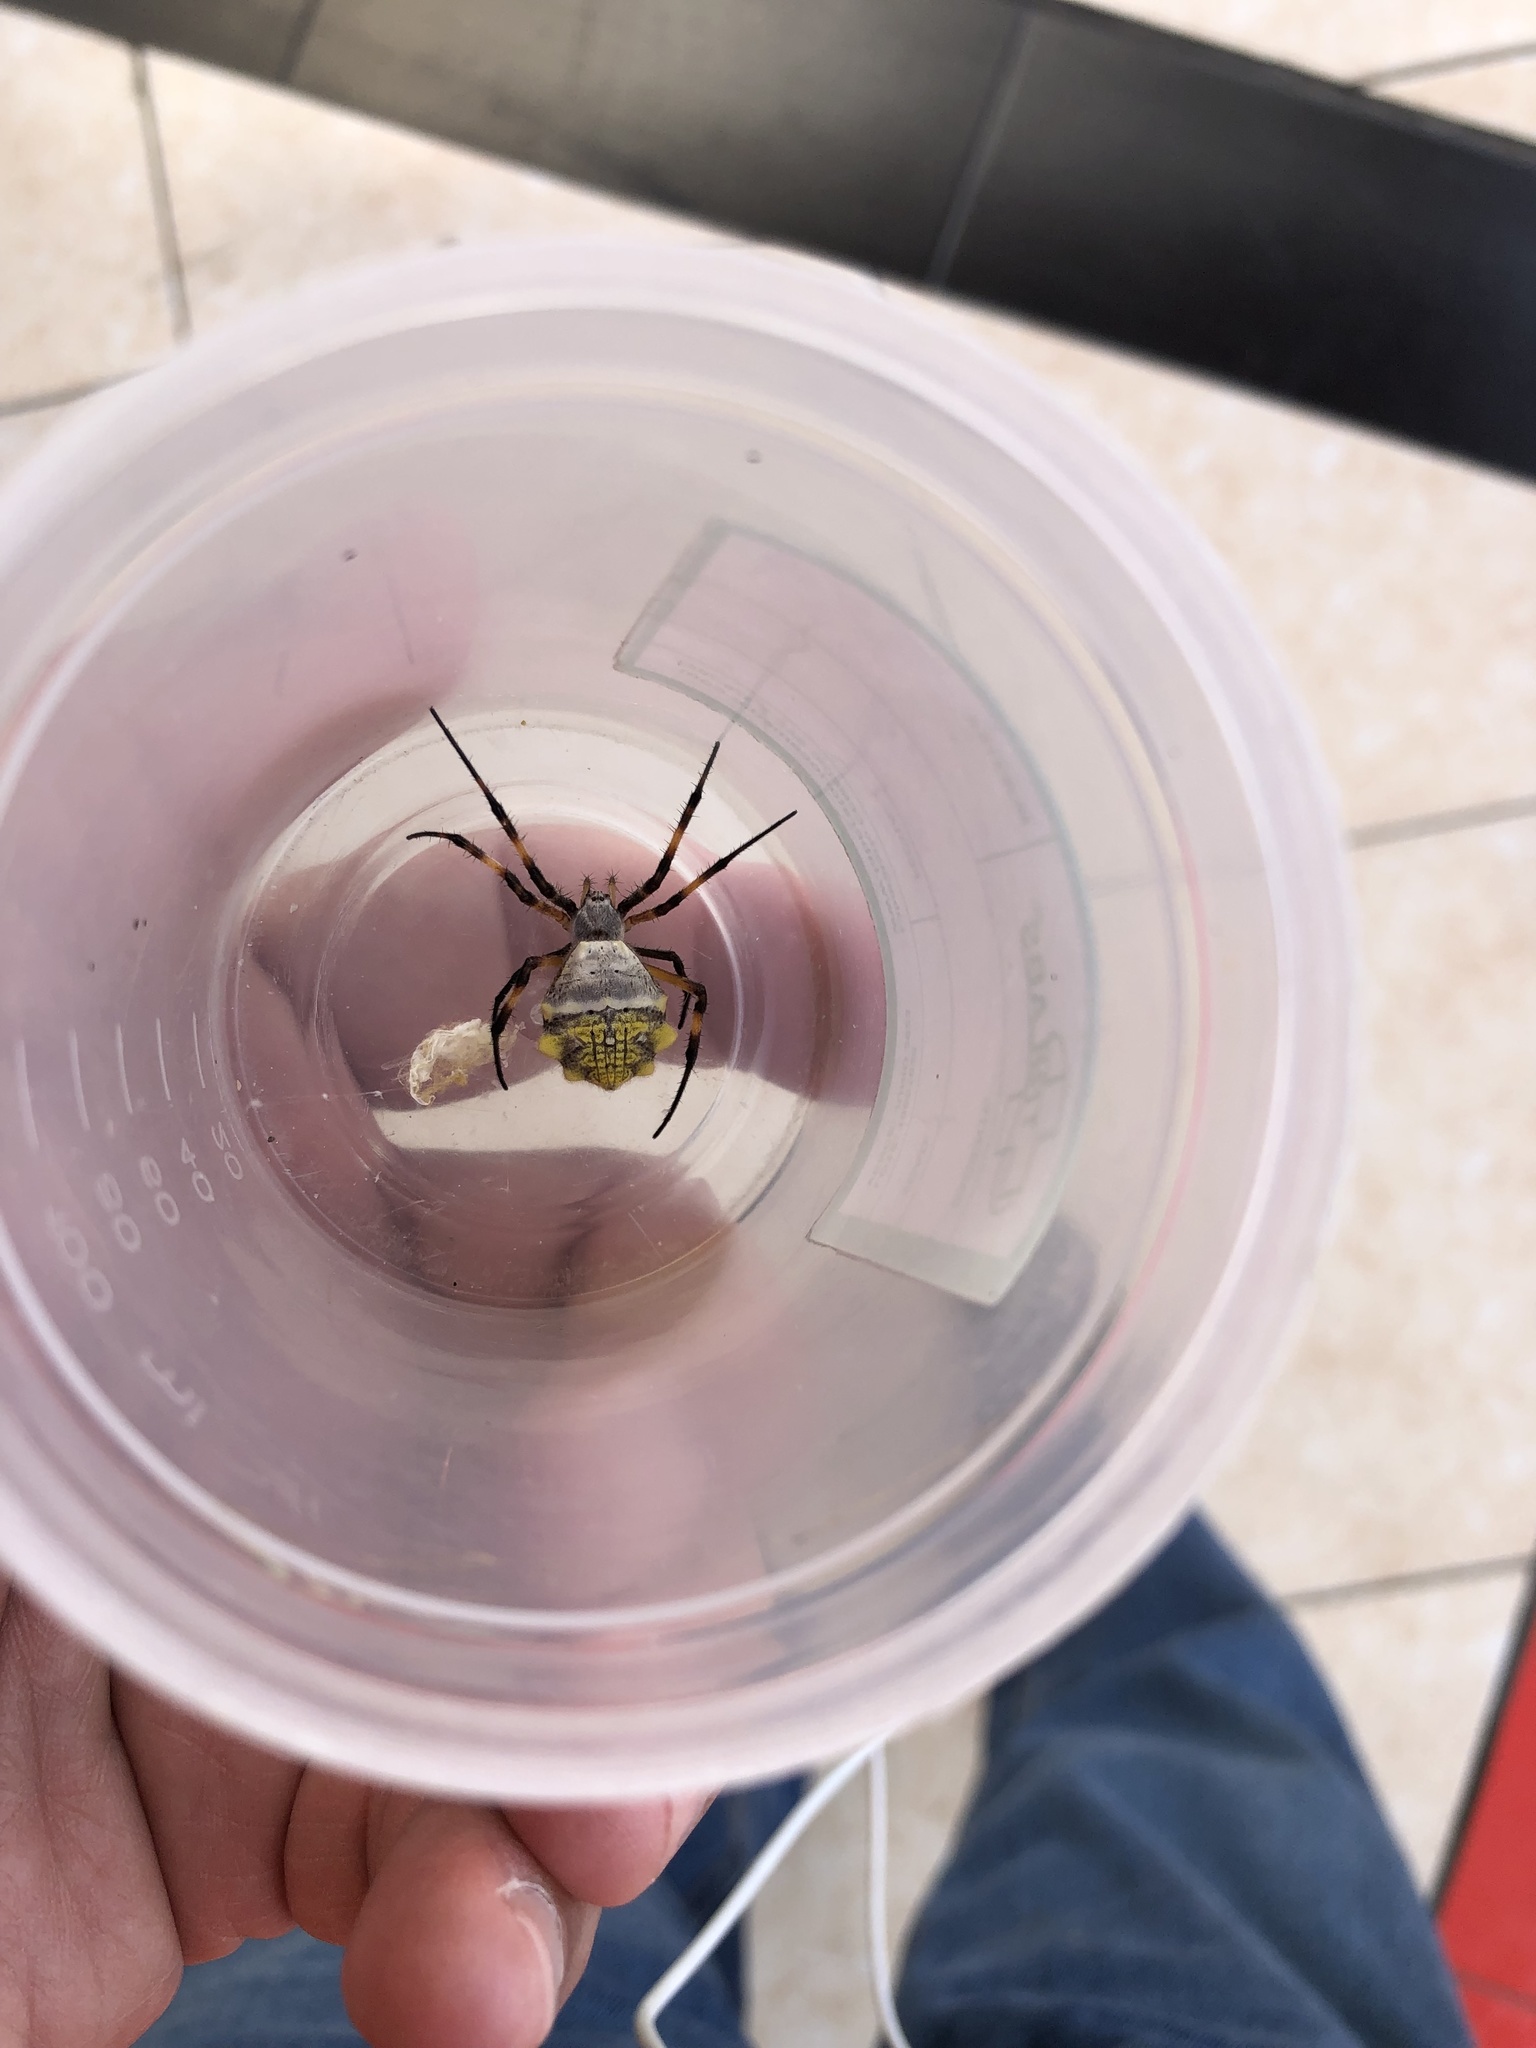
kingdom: Animalia
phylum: Arthropoda
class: Arachnida
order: Araneae
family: Araneidae
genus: Argiope
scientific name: Argiope argentata
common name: Orb weavers
